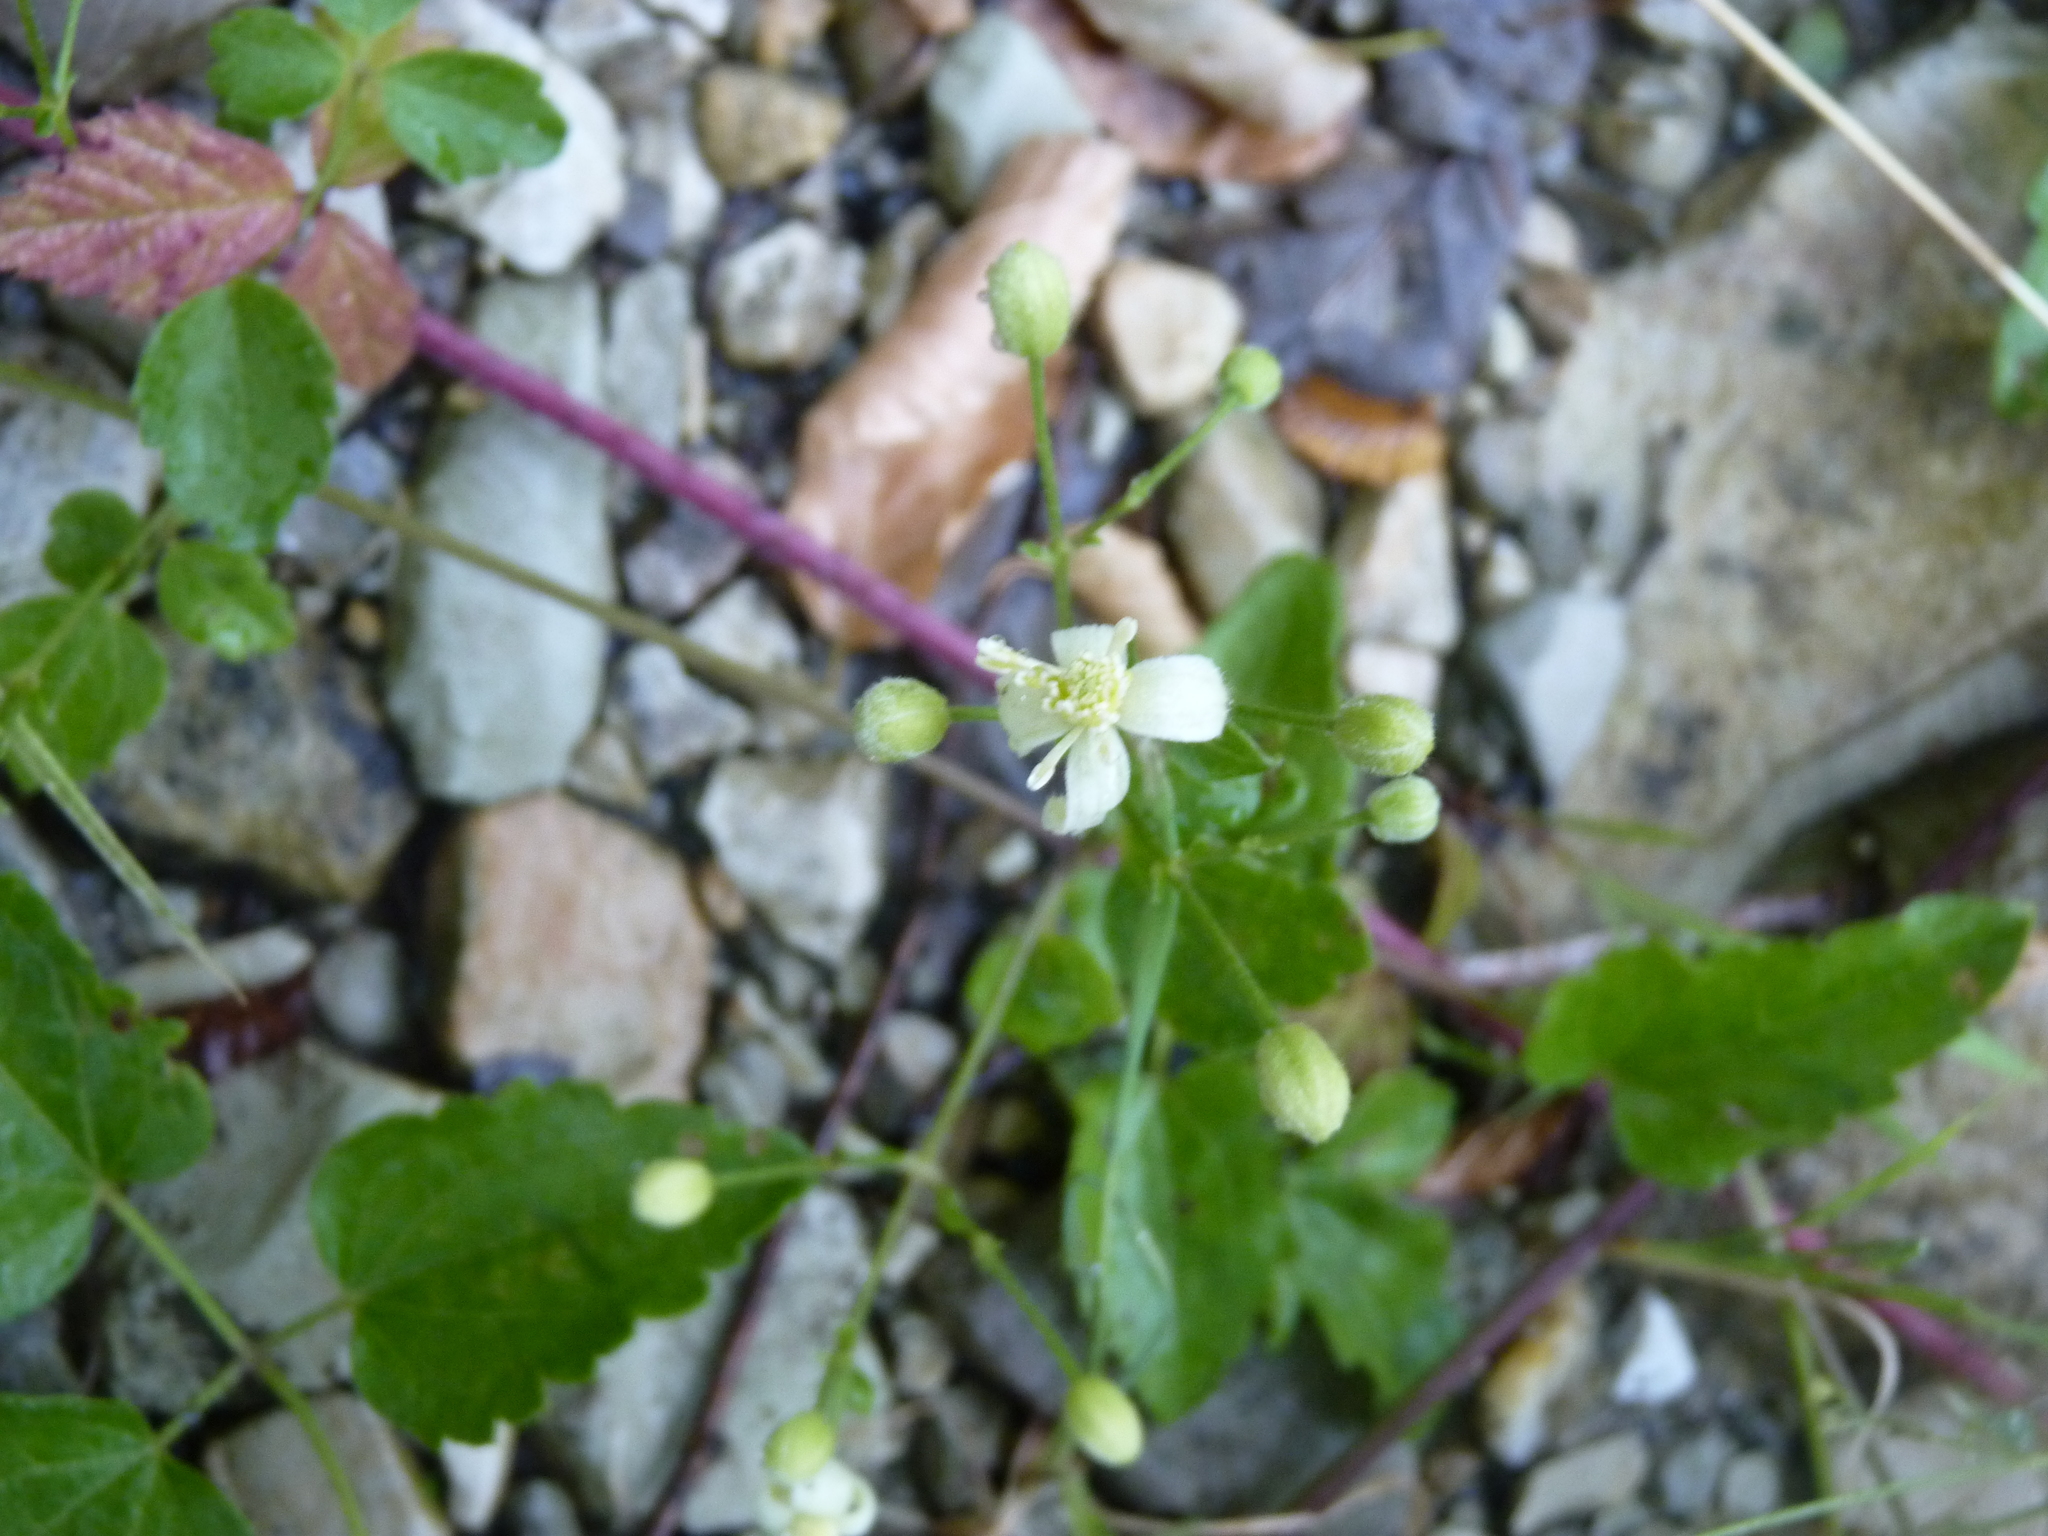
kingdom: Plantae
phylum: Tracheophyta
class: Magnoliopsida
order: Ranunculales
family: Ranunculaceae
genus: Clematis
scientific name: Clematis vitalba
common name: Evergreen clematis
